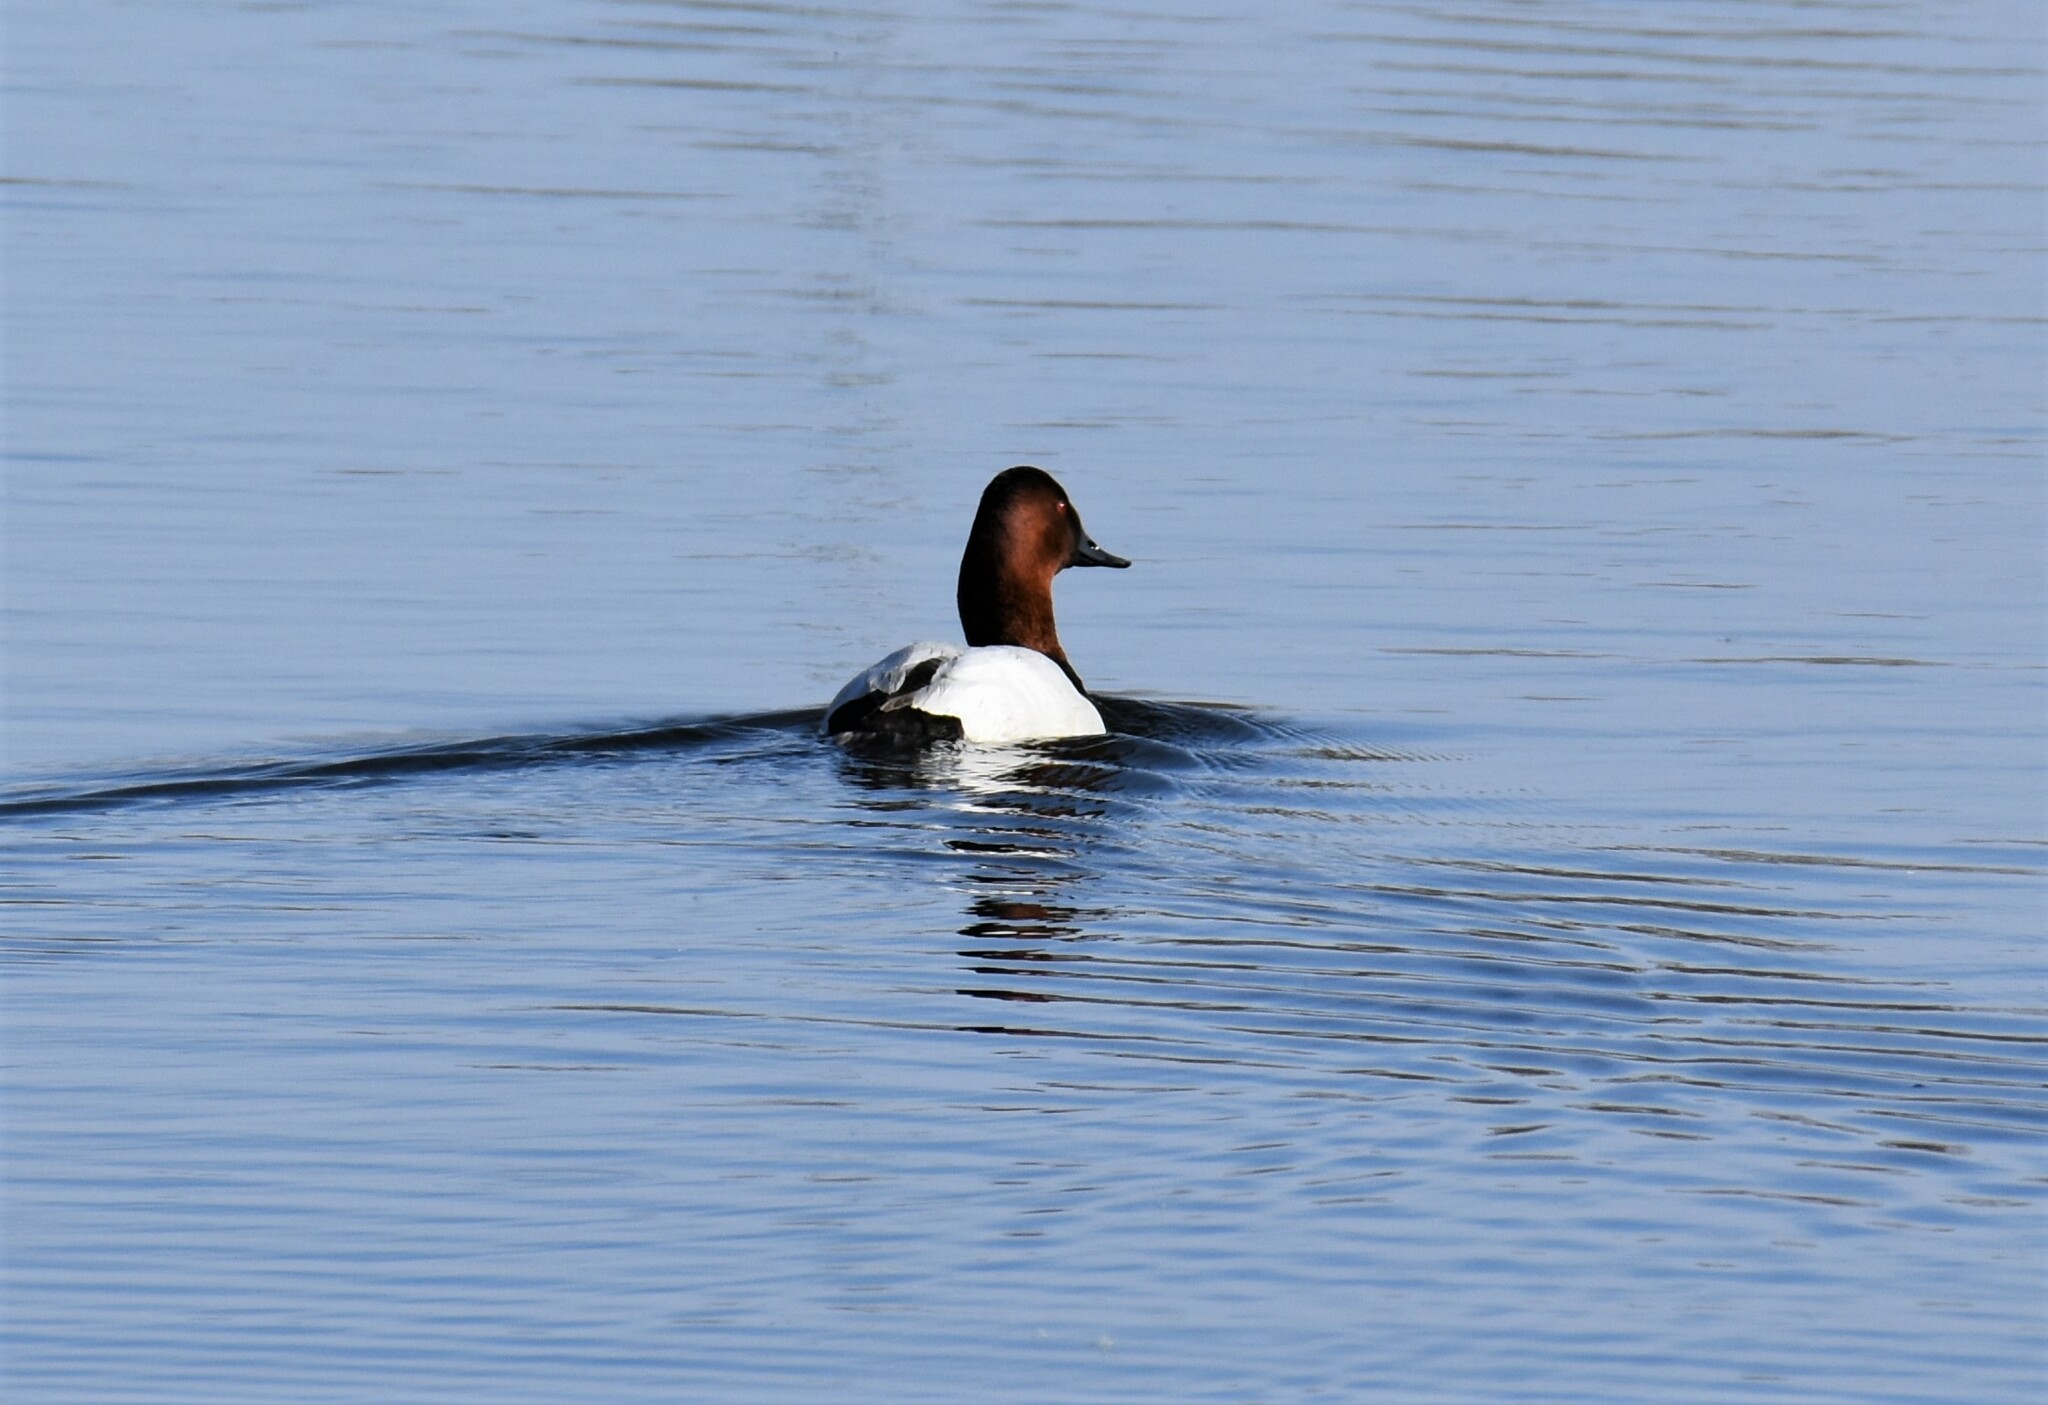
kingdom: Animalia
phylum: Chordata
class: Aves
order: Anseriformes
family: Anatidae
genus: Aythya
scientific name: Aythya valisineria
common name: Canvasback
